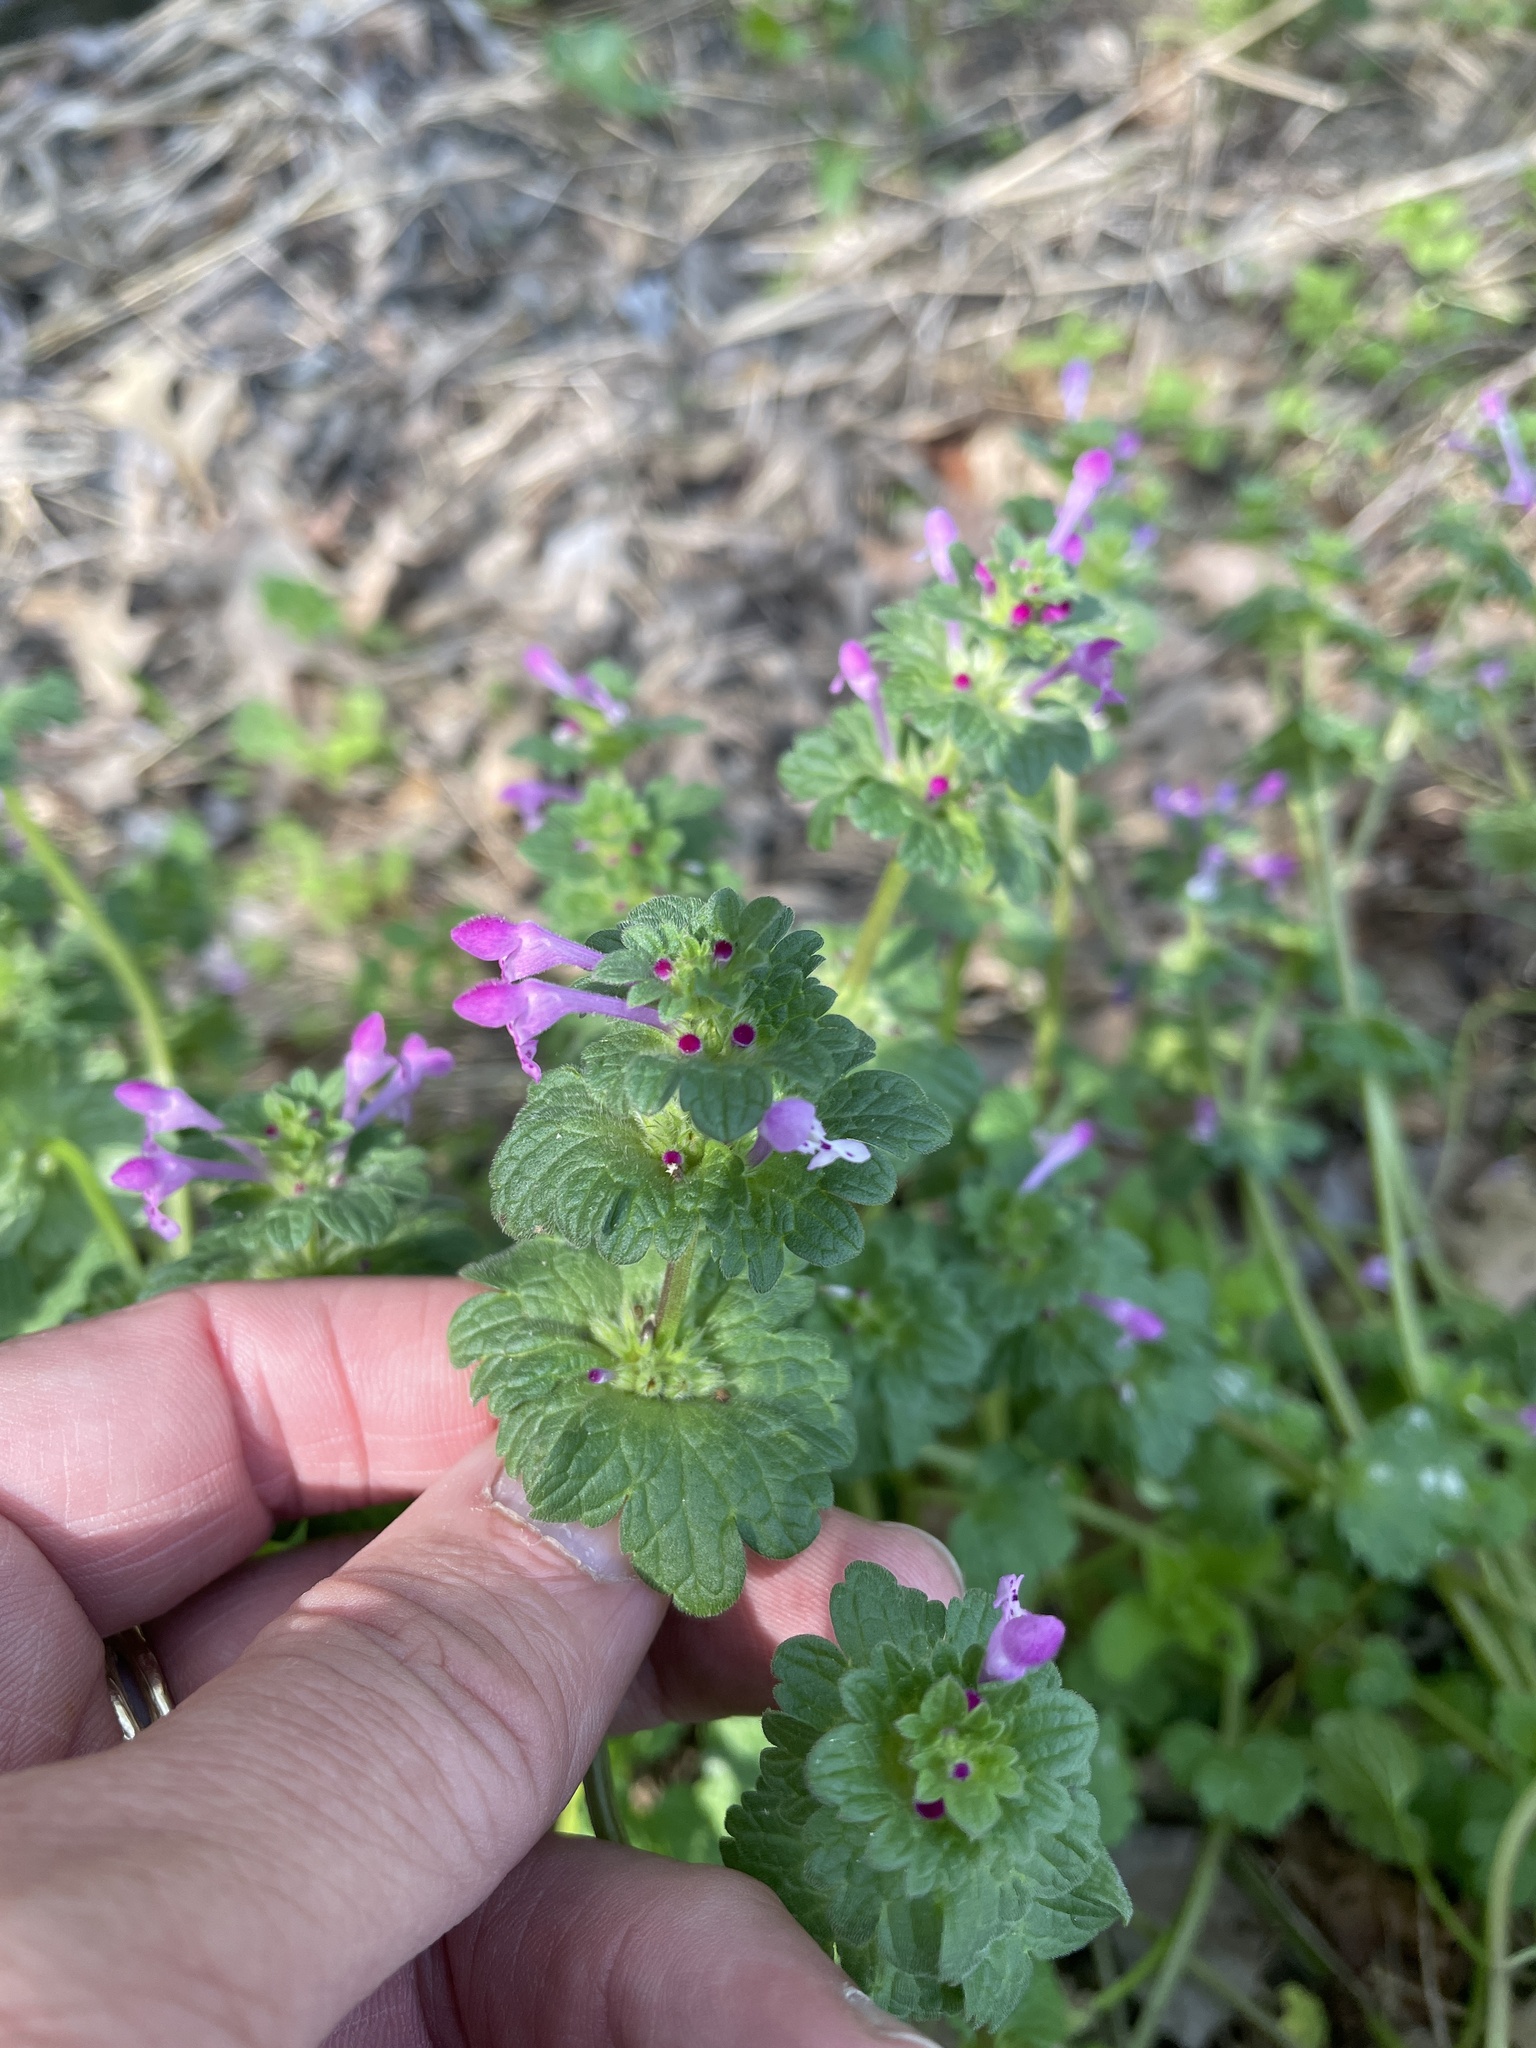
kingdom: Plantae
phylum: Tracheophyta
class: Magnoliopsida
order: Lamiales
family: Lamiaceae
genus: Lamium
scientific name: Lamium amplexicaule
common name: Henbit dead-nettle
